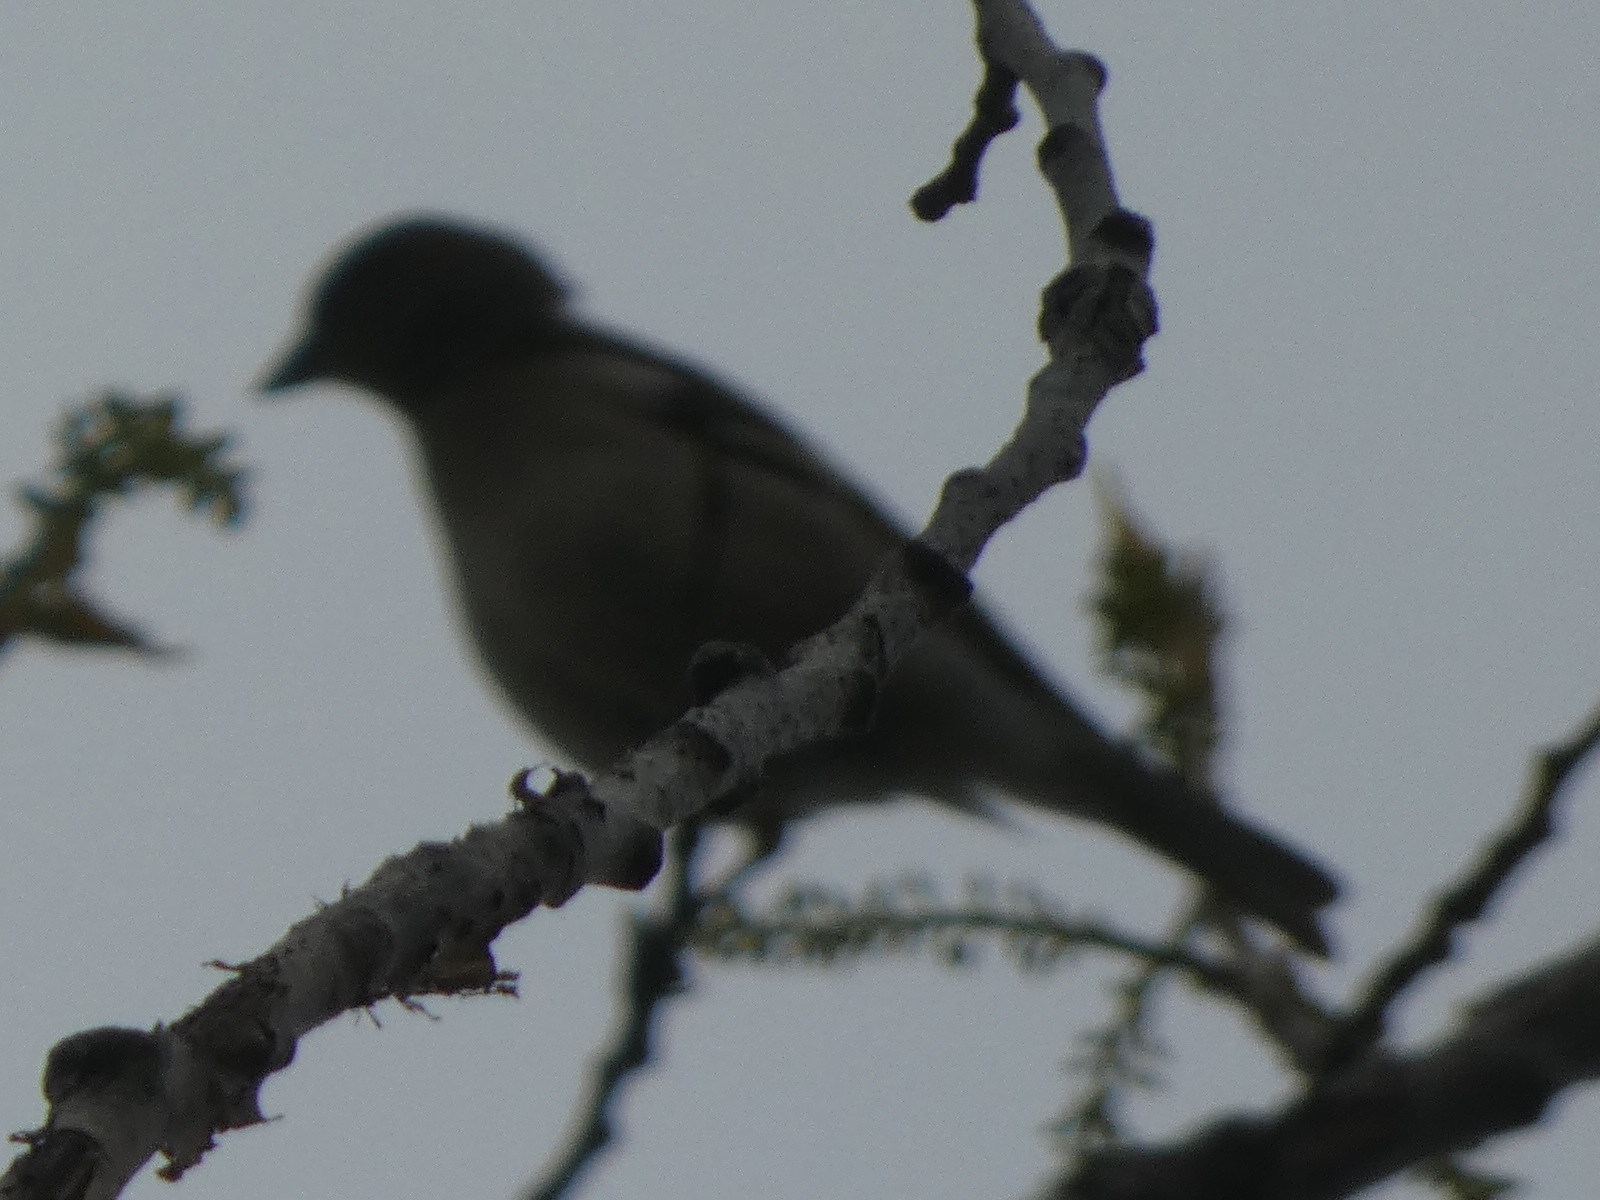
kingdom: Animalia
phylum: Chordata
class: Aves
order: Passeriformes
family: Fringillidae
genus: Fringilla
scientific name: Fringilla coelebs
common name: Common chaffinch
